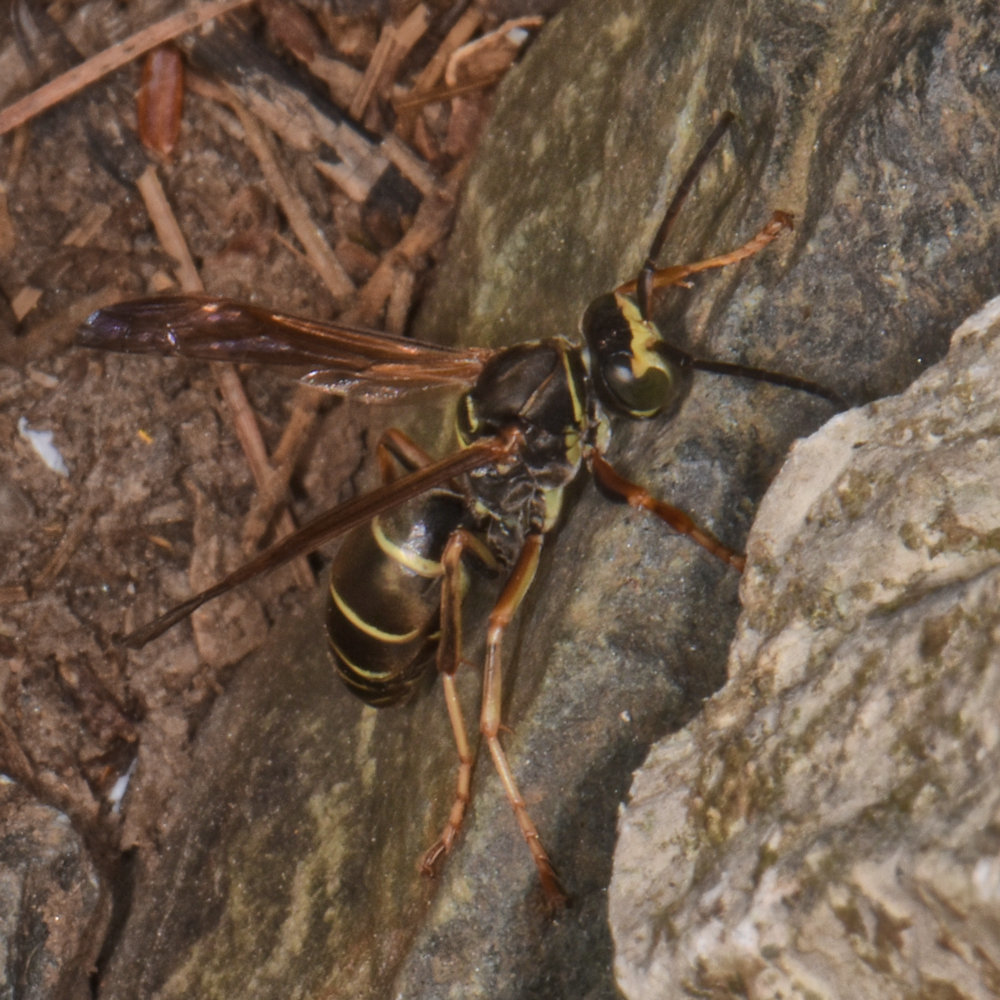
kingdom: Animalia
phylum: Arthropoda
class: Insecta
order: Hymenoptera
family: Eumenidae
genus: Polistes
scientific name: Polistes fuscatus
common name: Dark paper wasp
